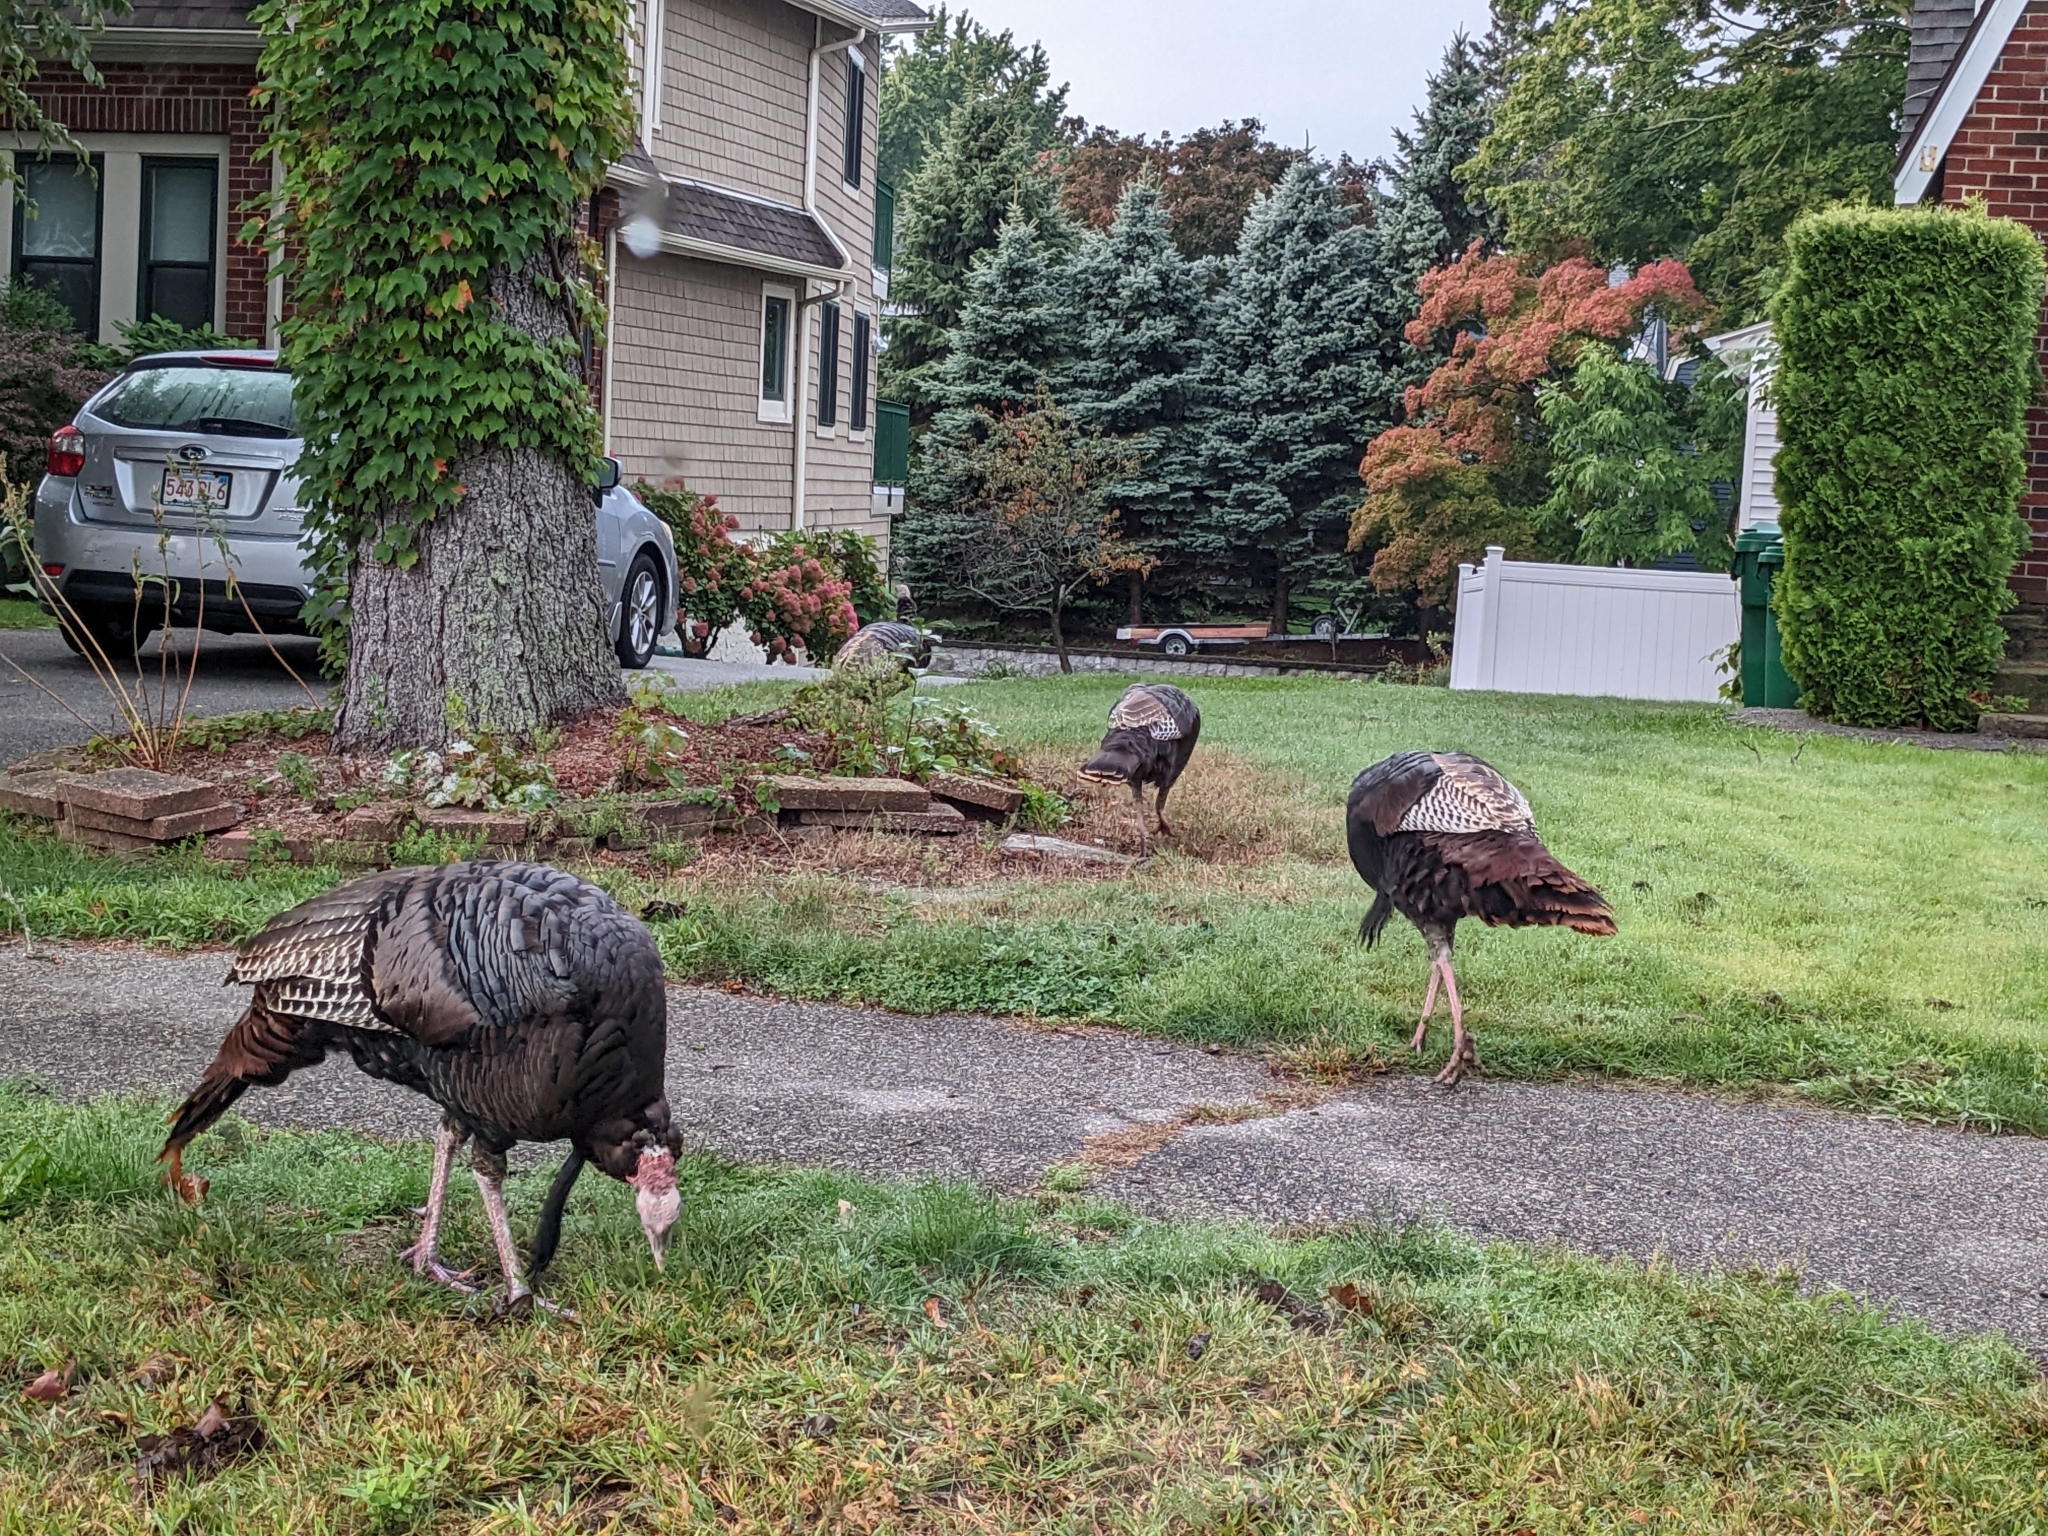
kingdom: Animalia
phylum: Chordata
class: Aves
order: Galliformes
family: Phasianidae
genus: Meleagris
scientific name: Meleagris gallopavo
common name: Wild turkey
